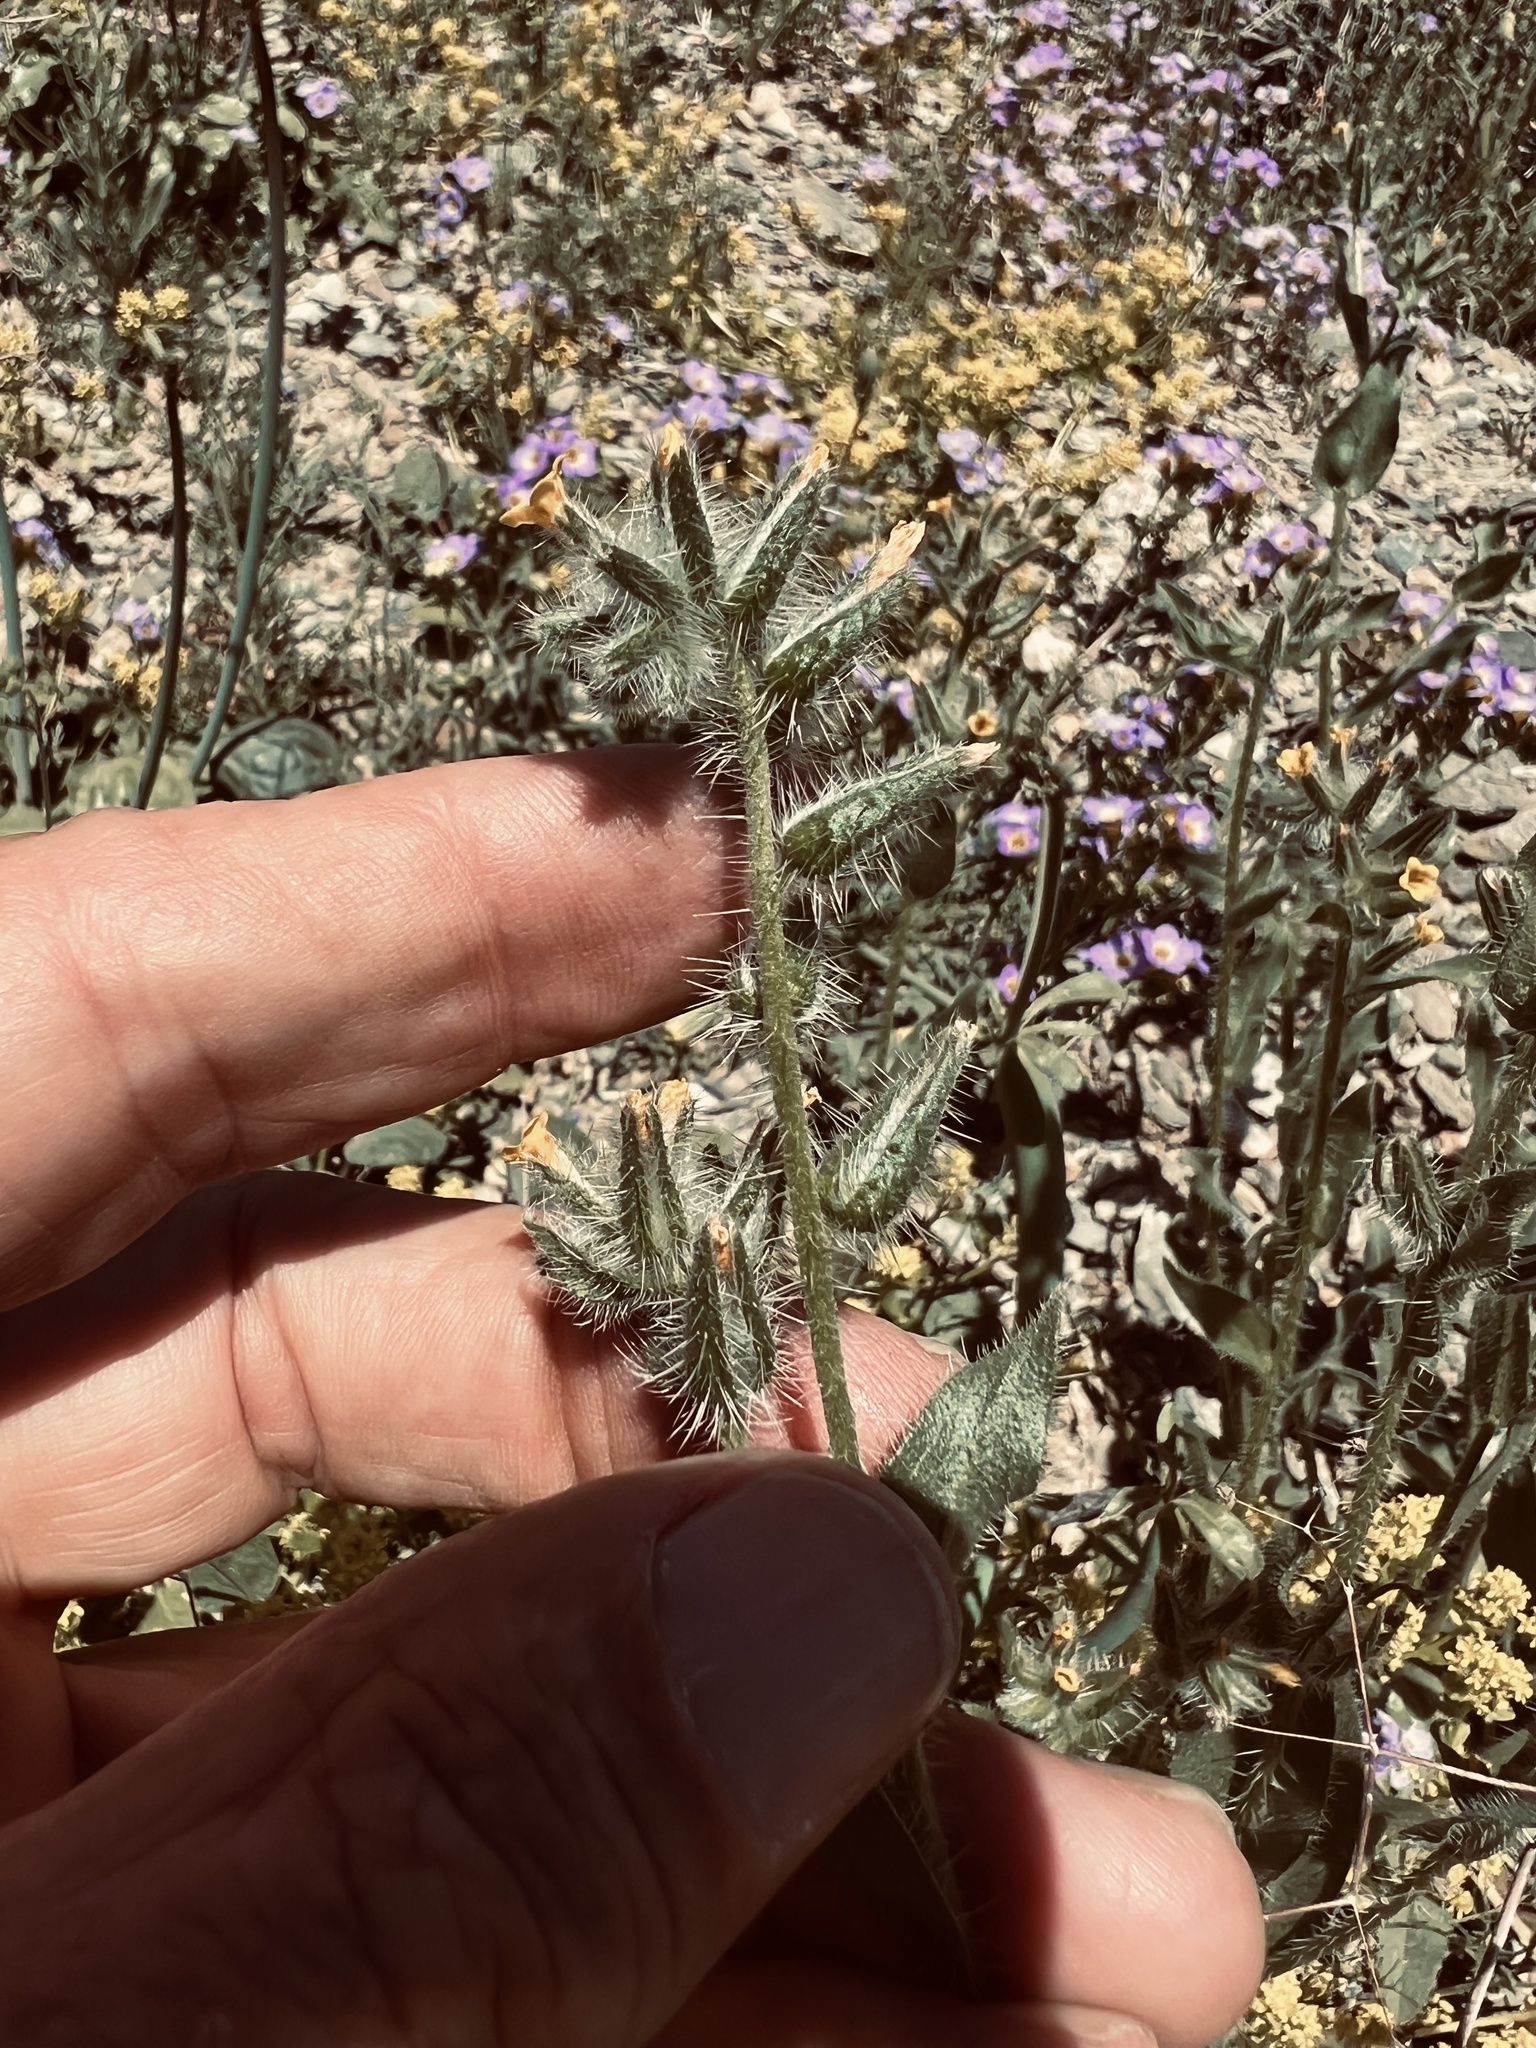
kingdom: Plantae
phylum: Tracheophyta
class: Magnoliopsida
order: Boraginales
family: Boraginaceae
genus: Amsinckia
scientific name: Amsinckia tessellata
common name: Tessellate fiddleneck
